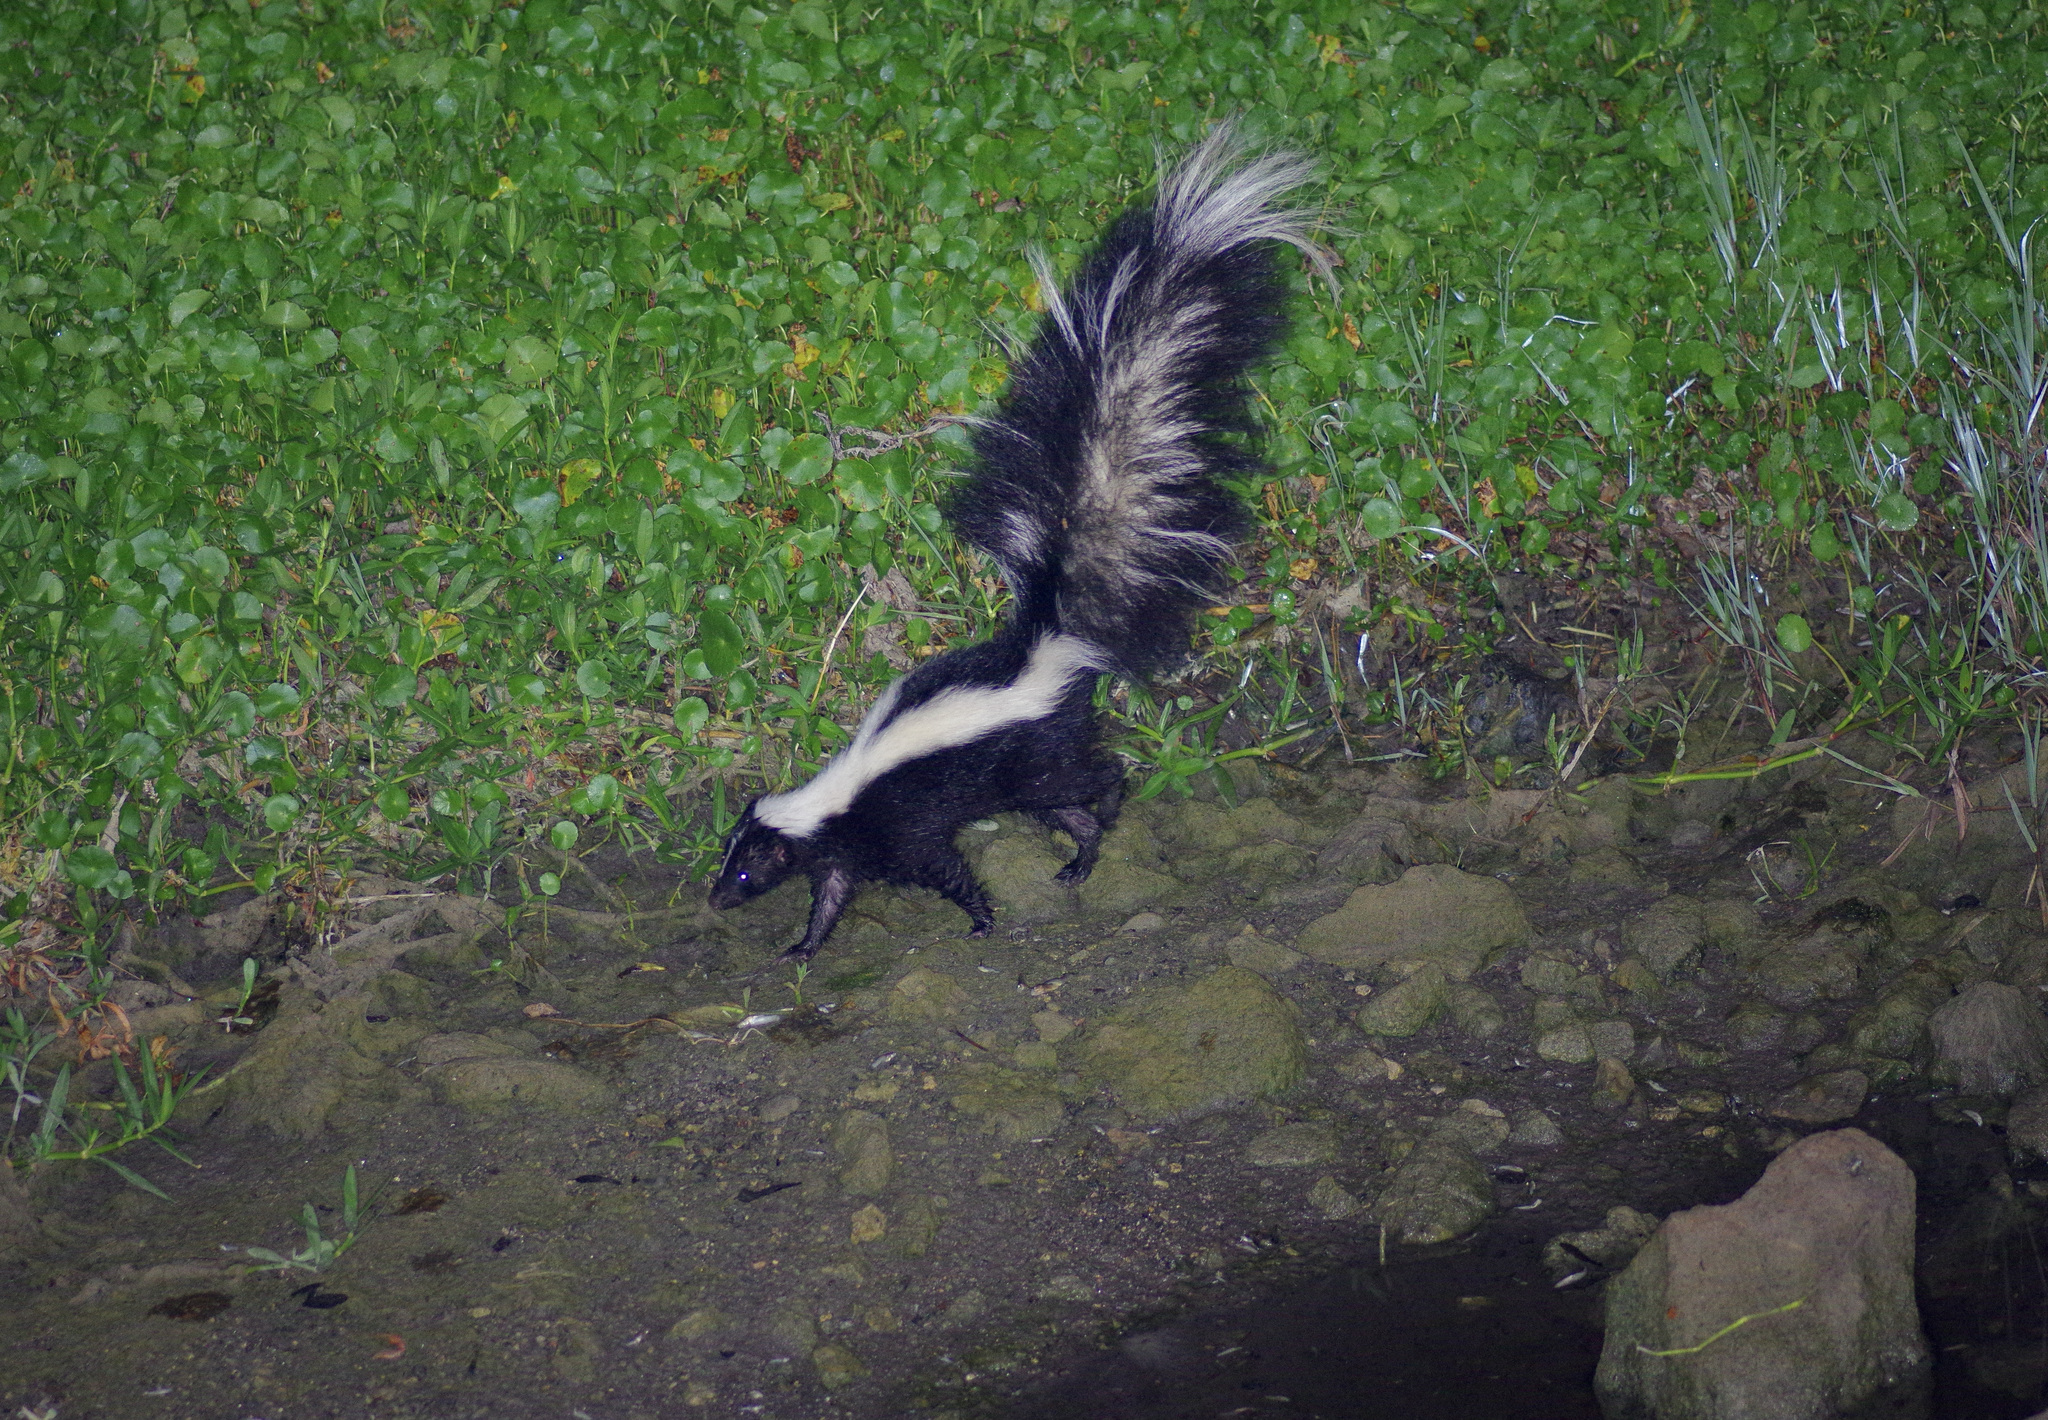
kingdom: Animalia
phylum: Chordata
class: Mammalia
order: Carnivora
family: Mephitidae
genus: Mephitis
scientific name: Mephitis mephitis
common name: Striped skunk
